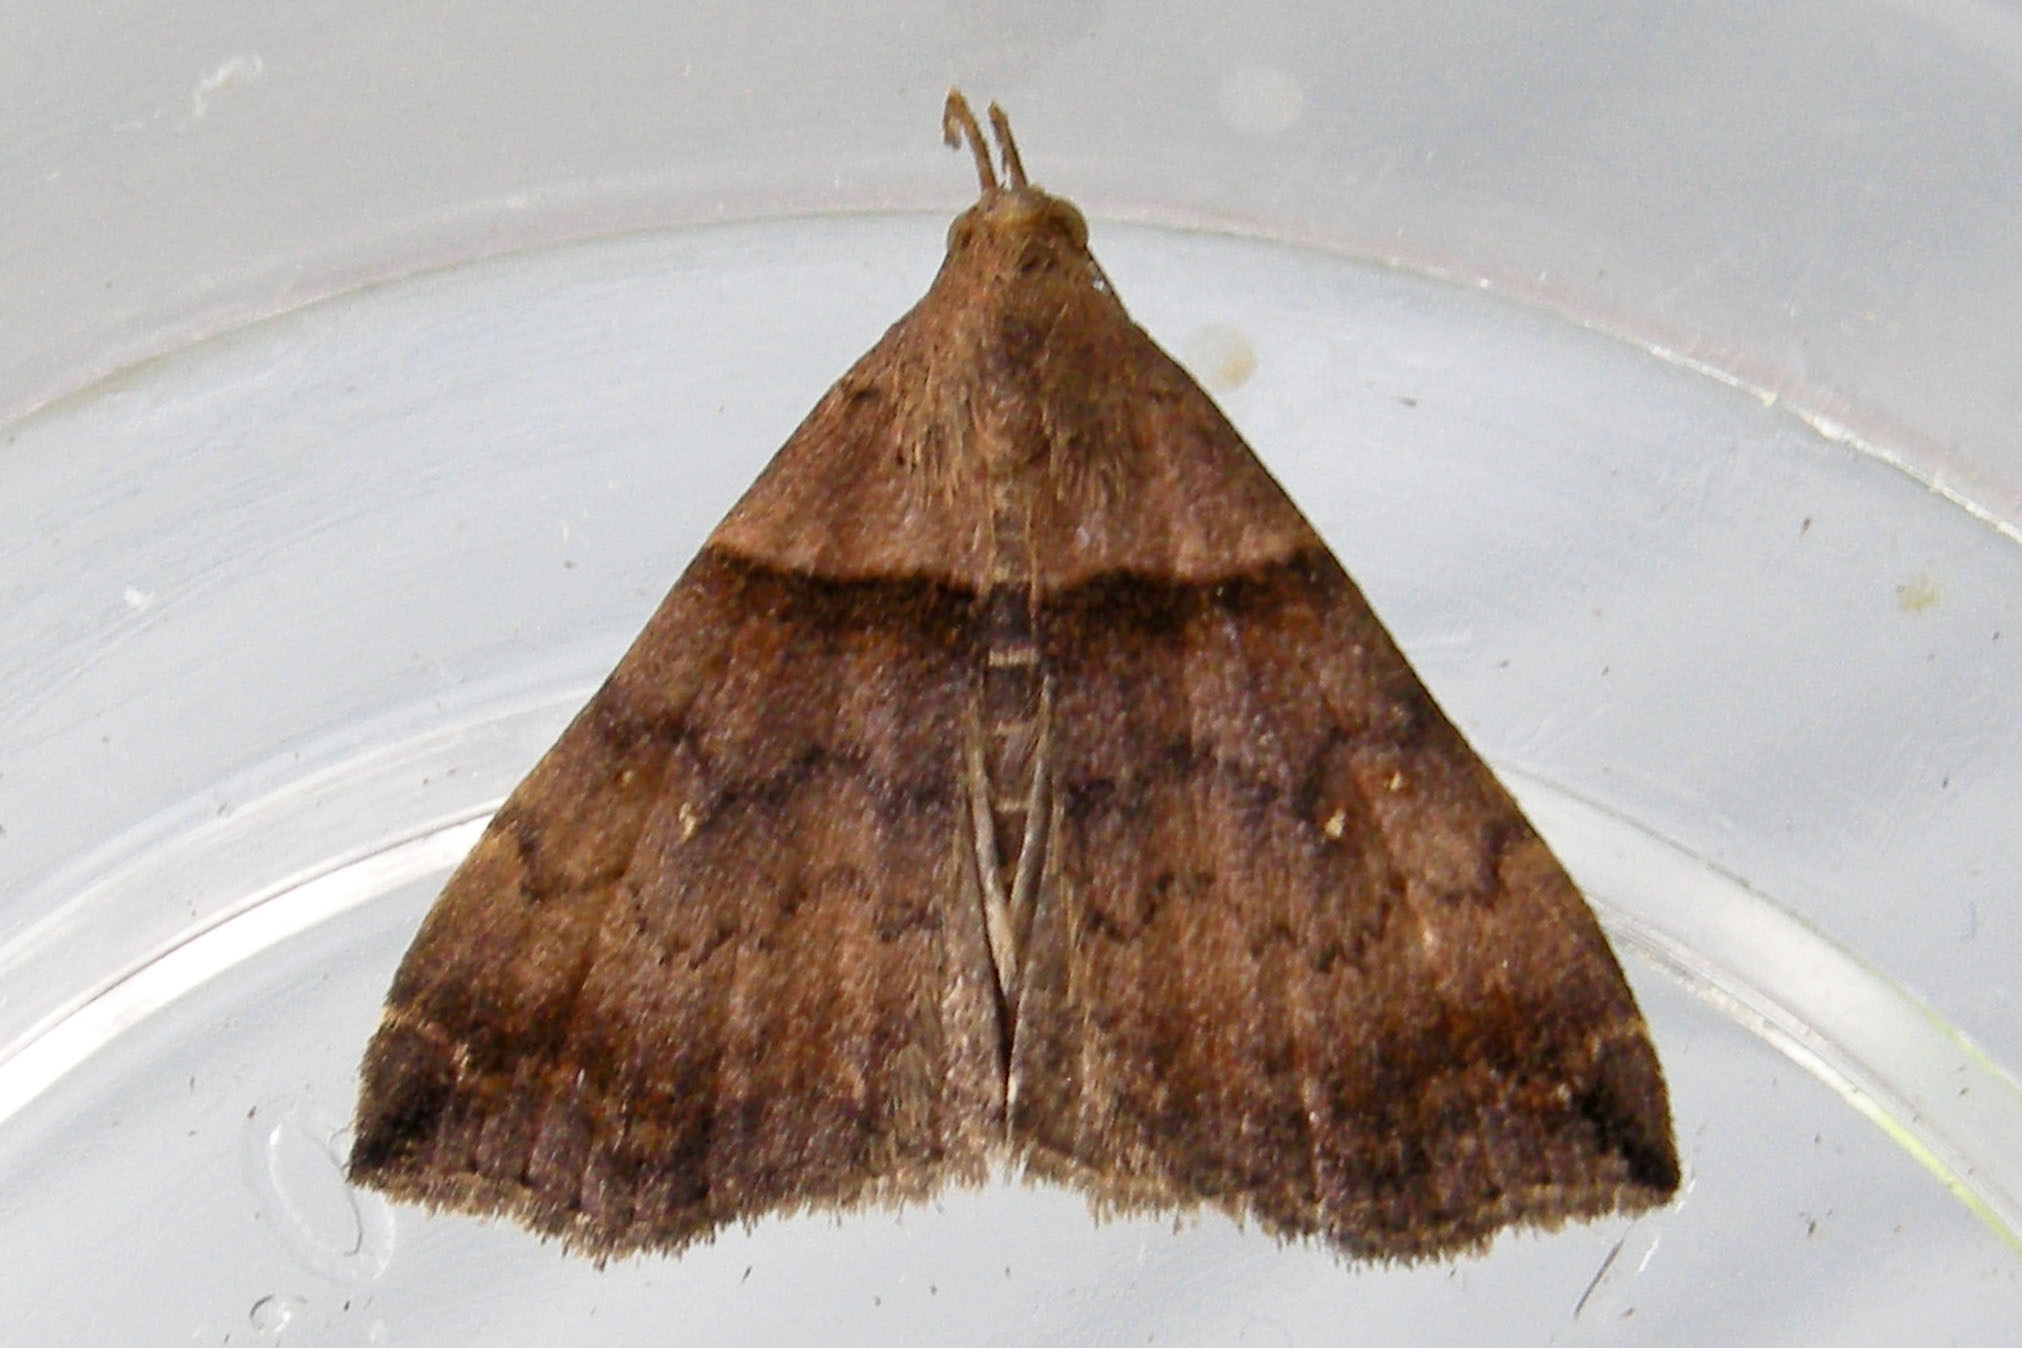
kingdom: Animalia
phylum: Arthropoda
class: Insecta
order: Lepidoptera
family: Erebidae
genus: Lascoria
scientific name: Lascoria ambigualis
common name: Ambiguous moth
